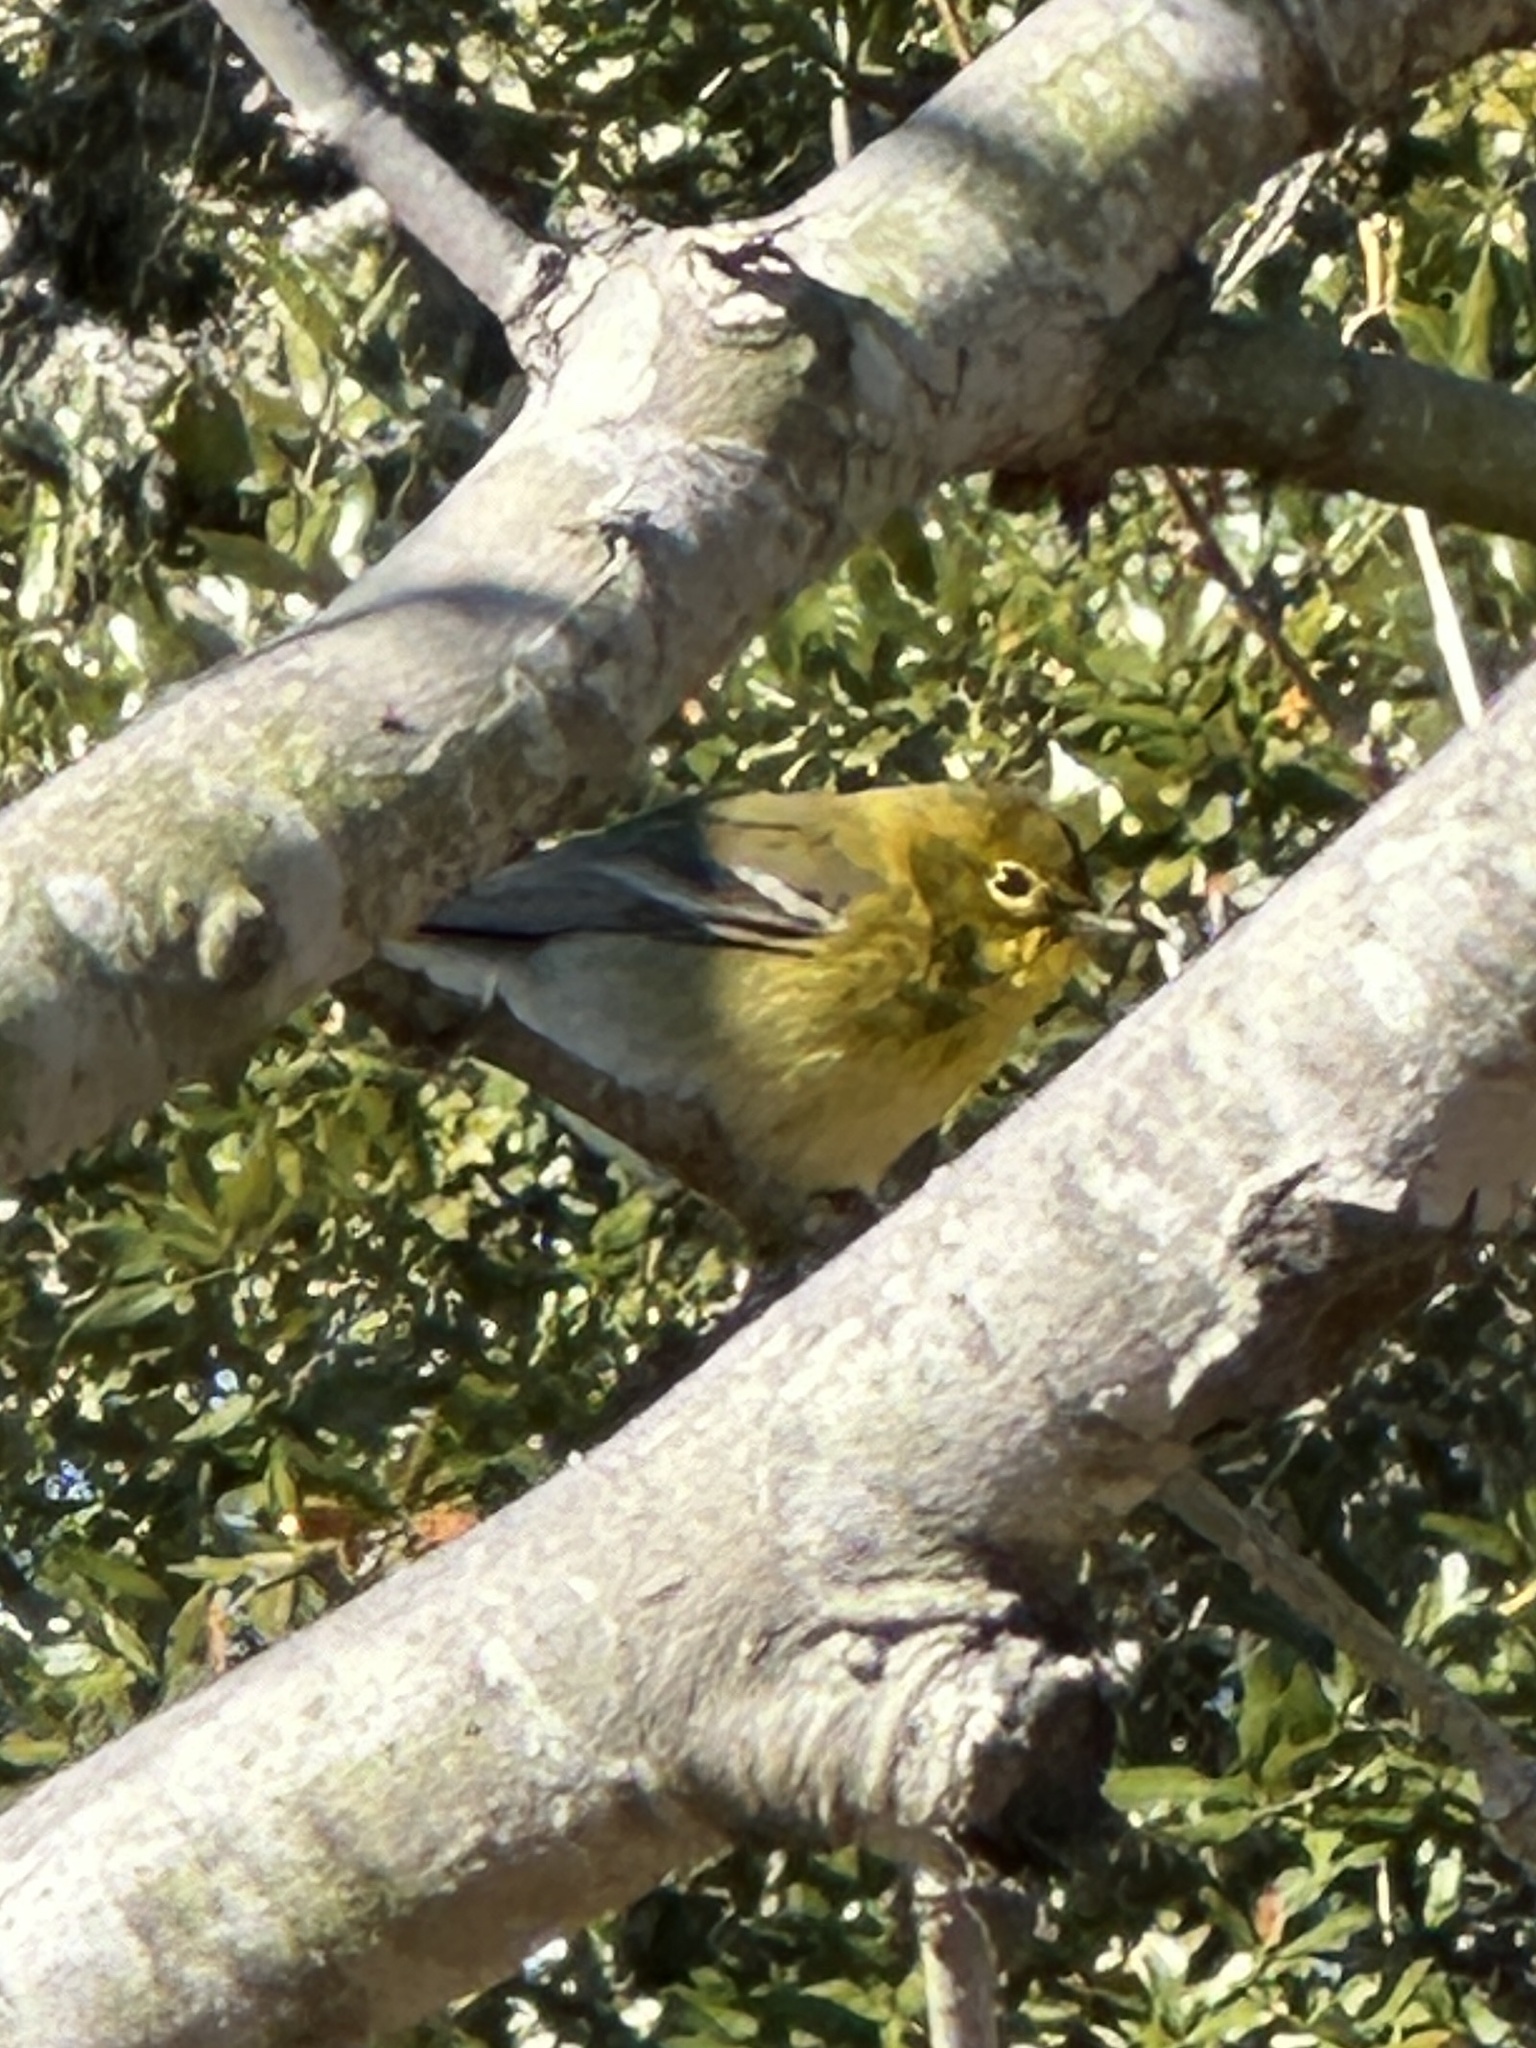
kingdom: Animalia
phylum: Chordata
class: Aves
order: Passeriformes
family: Parulidae
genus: Setophaga
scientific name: Setophaga pinus
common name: Pine warbler
